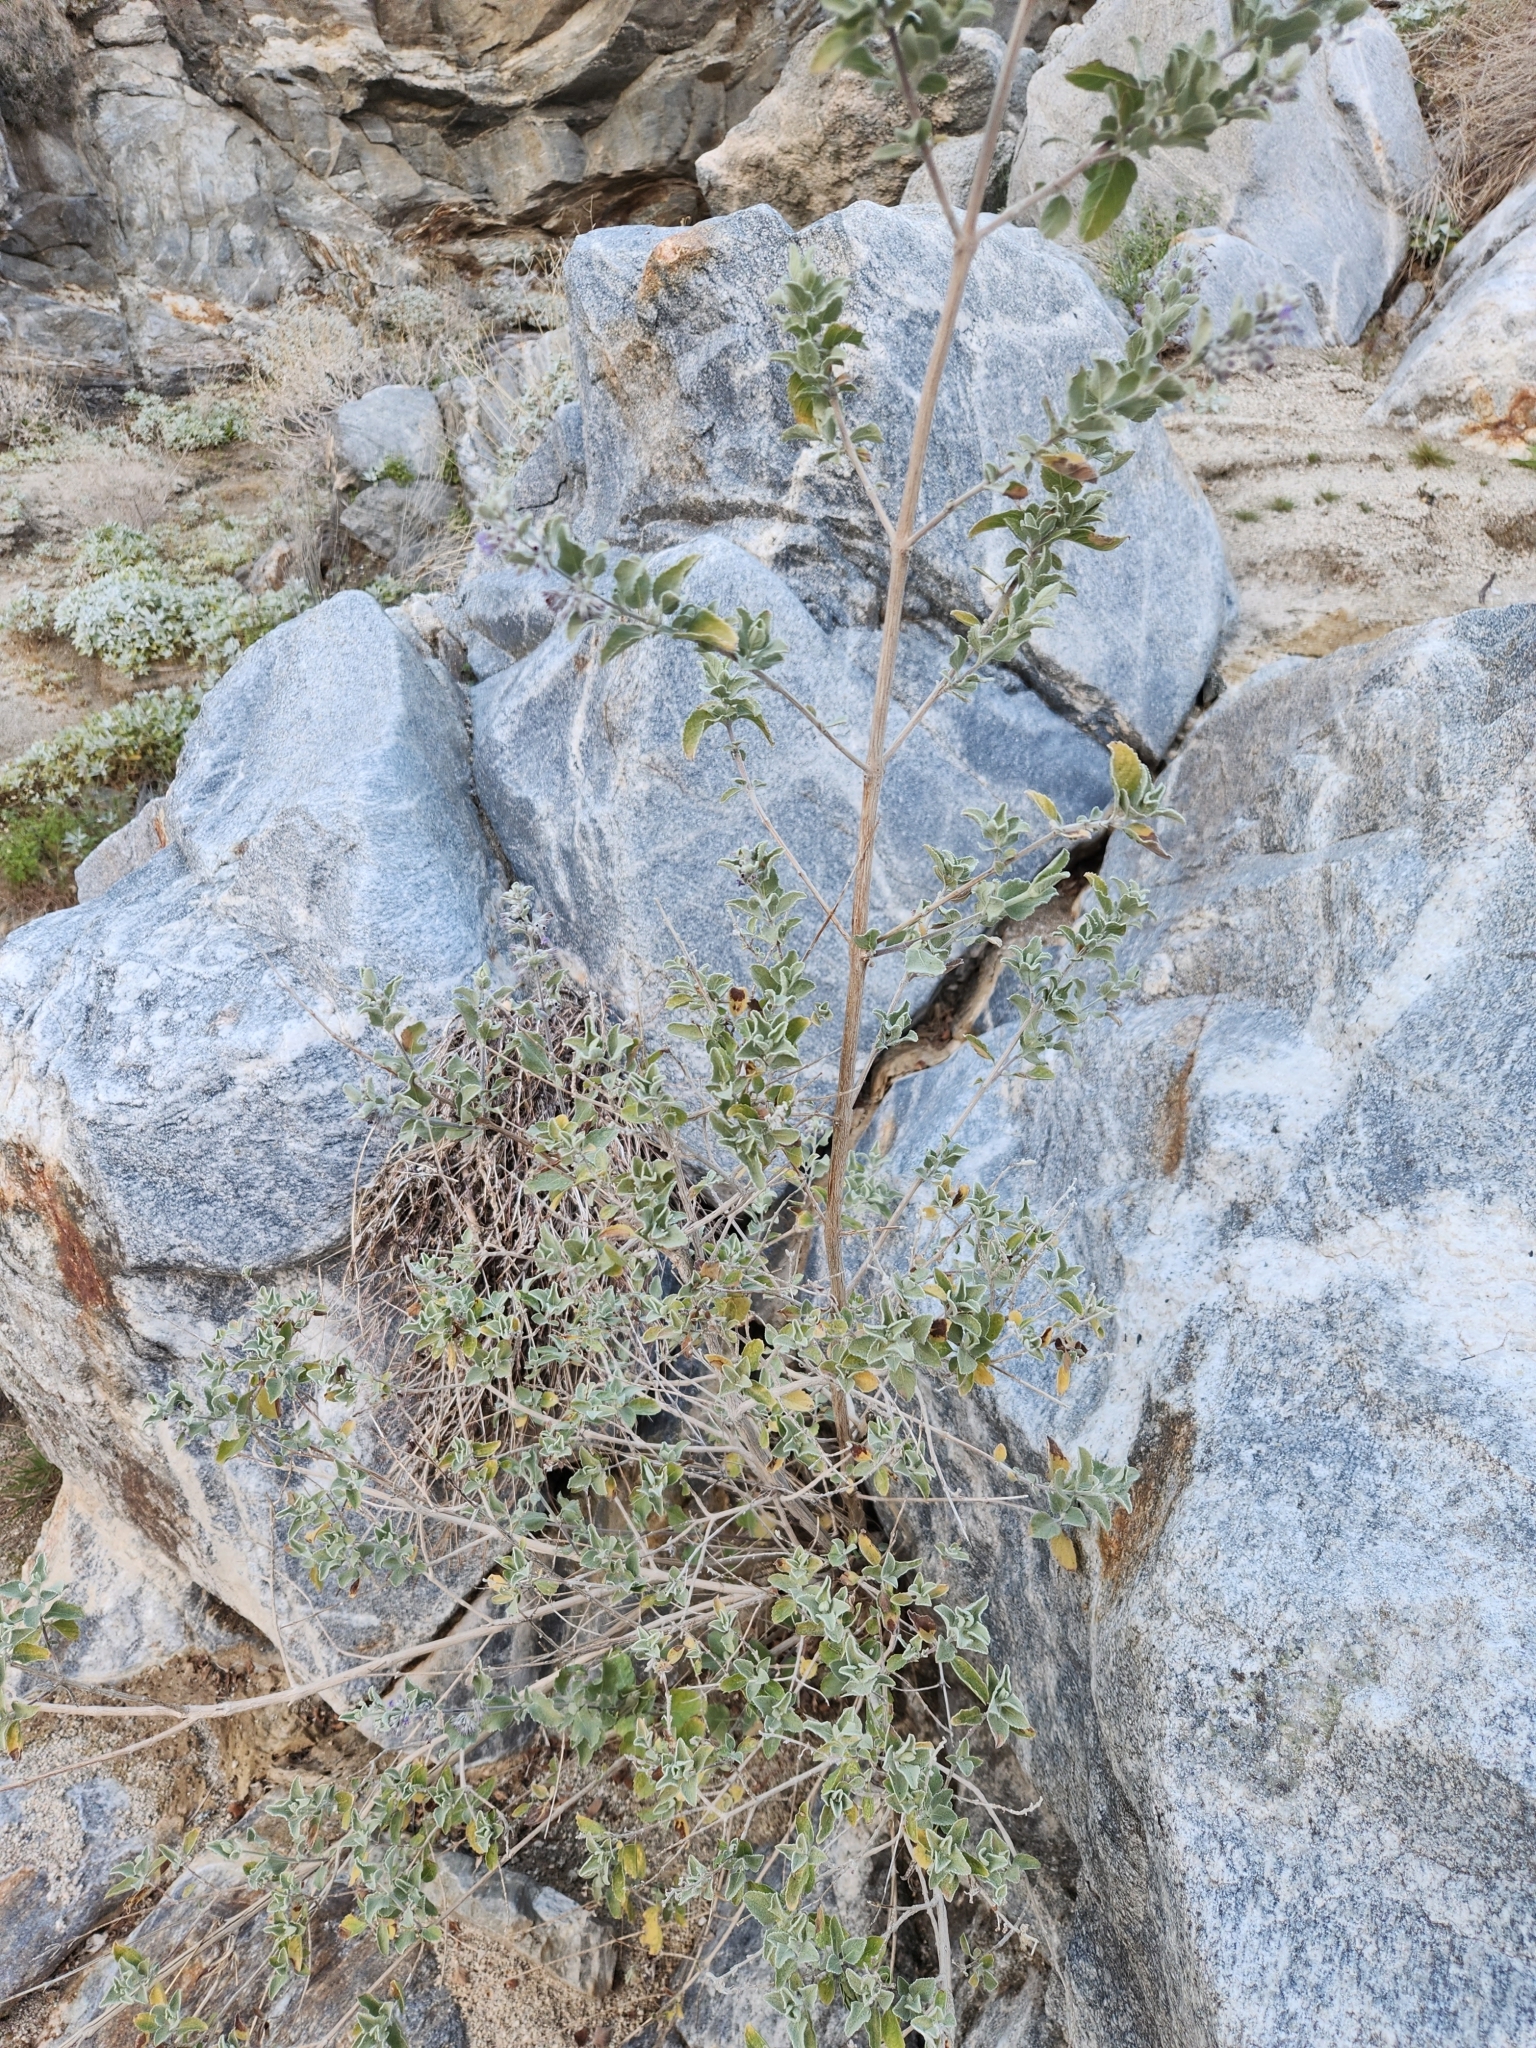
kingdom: Plantae
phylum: Tracheophyta
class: Magnoliopsida
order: Lamiales
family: Lamiaceae
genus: Condea
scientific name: Condea emoryi
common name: Chia
